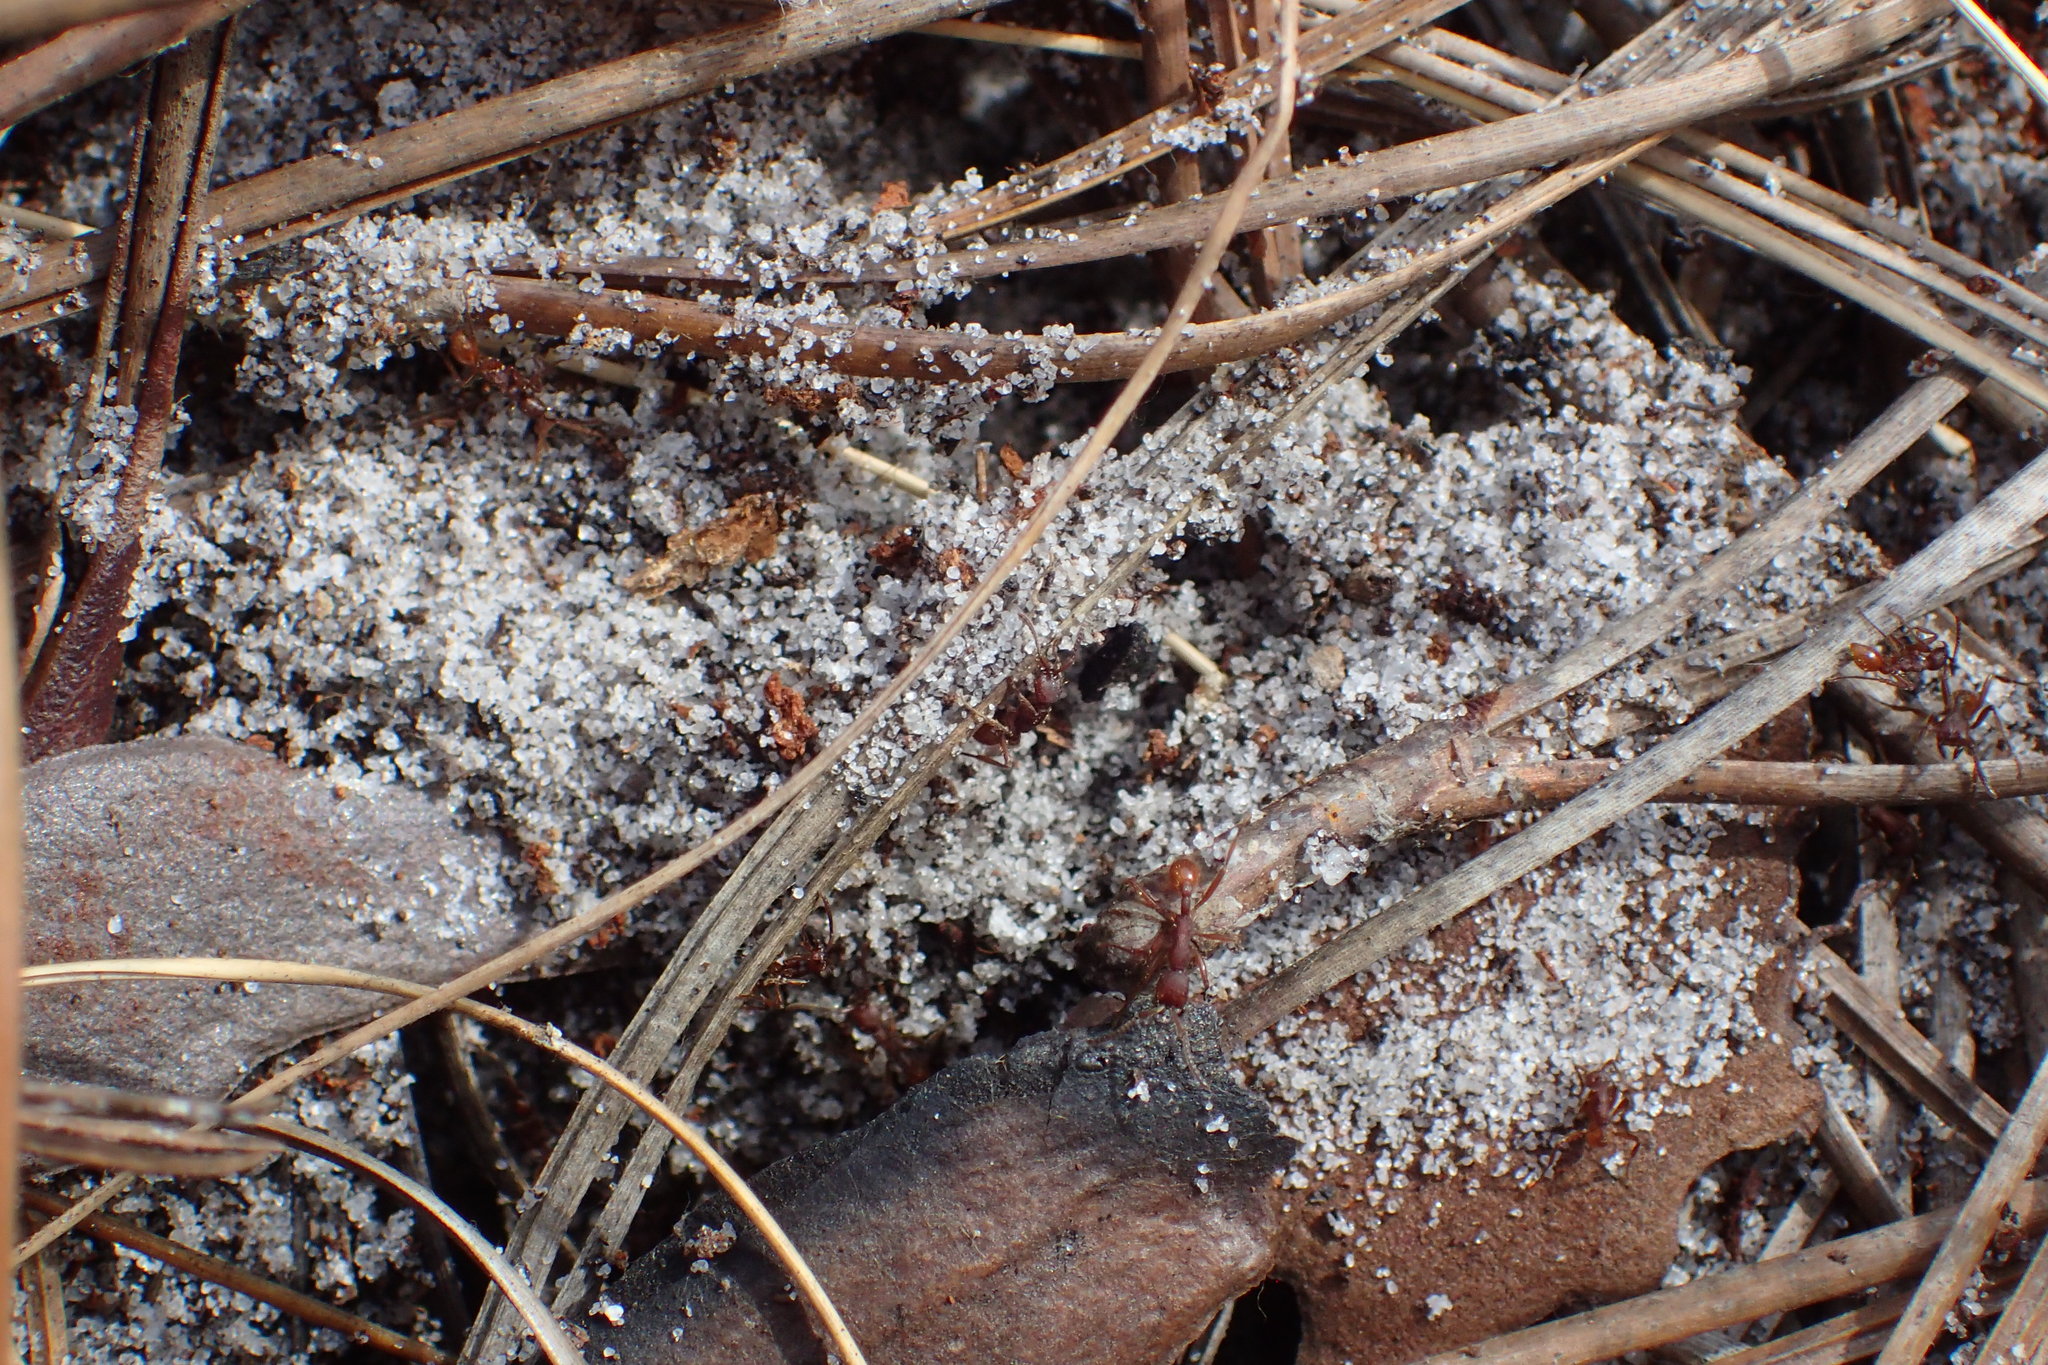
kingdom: Animalia
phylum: Arthropoda
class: Insecta
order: Hymenoptera
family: Formicidae
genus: Neivamyrmex
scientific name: Neivamyrmex nigrescens
